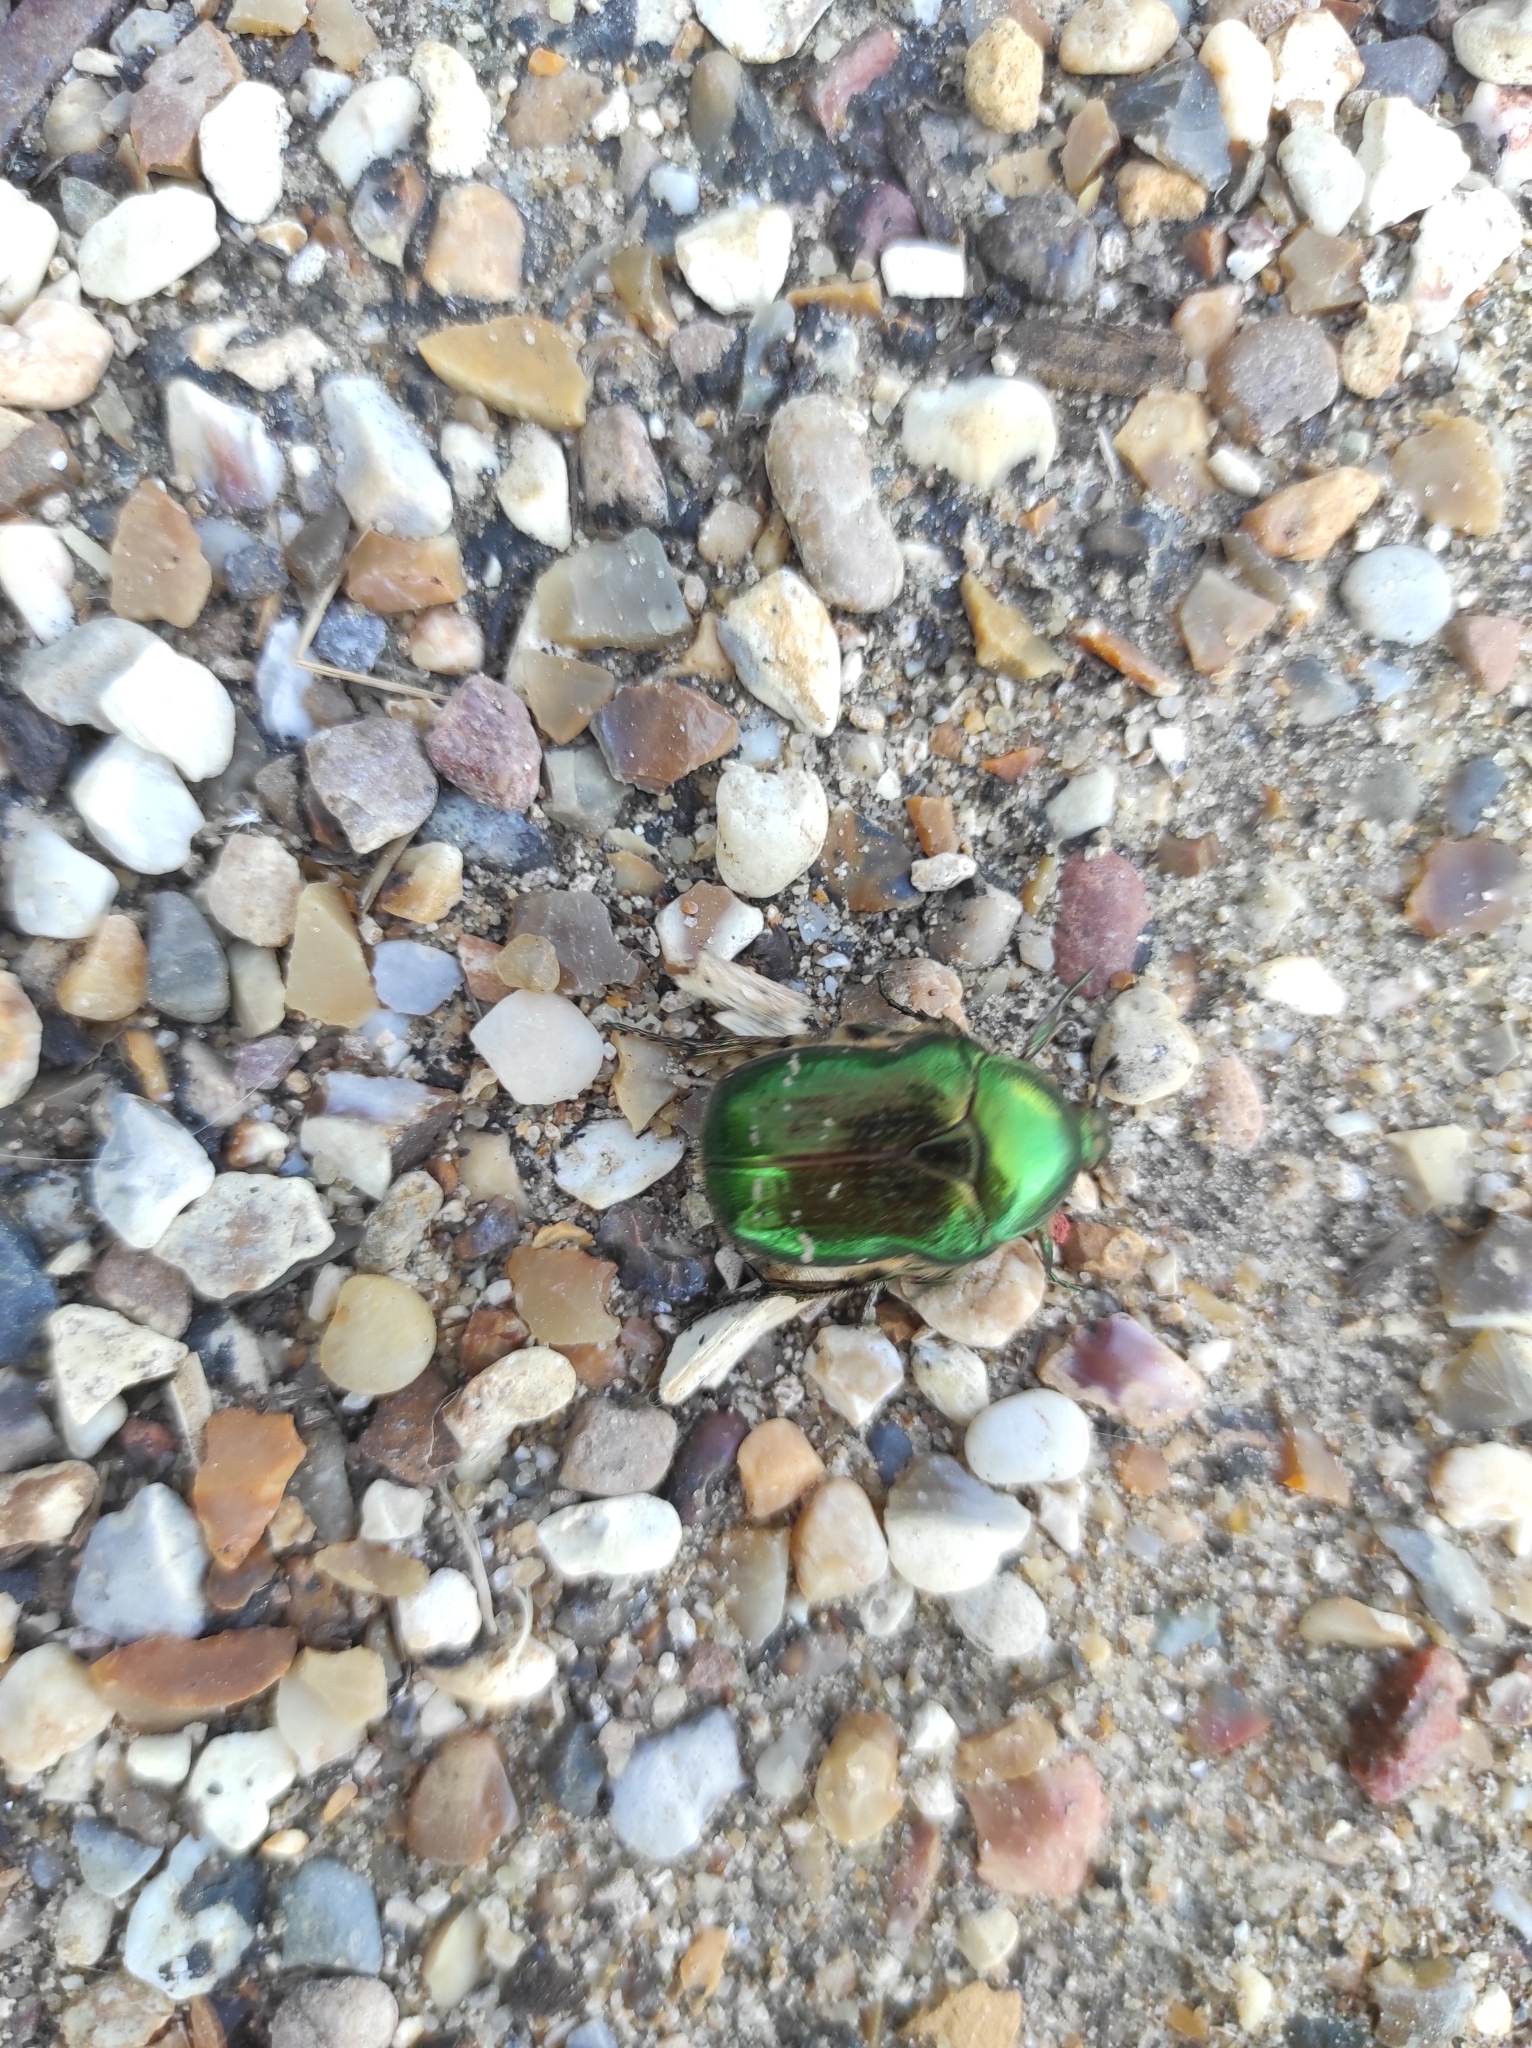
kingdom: Animalia
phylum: Arthropoda
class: Insecta
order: Coleoptera
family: Scarabaeidae
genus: Cetonia
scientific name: Cetonia aurata
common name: Rose chafer
